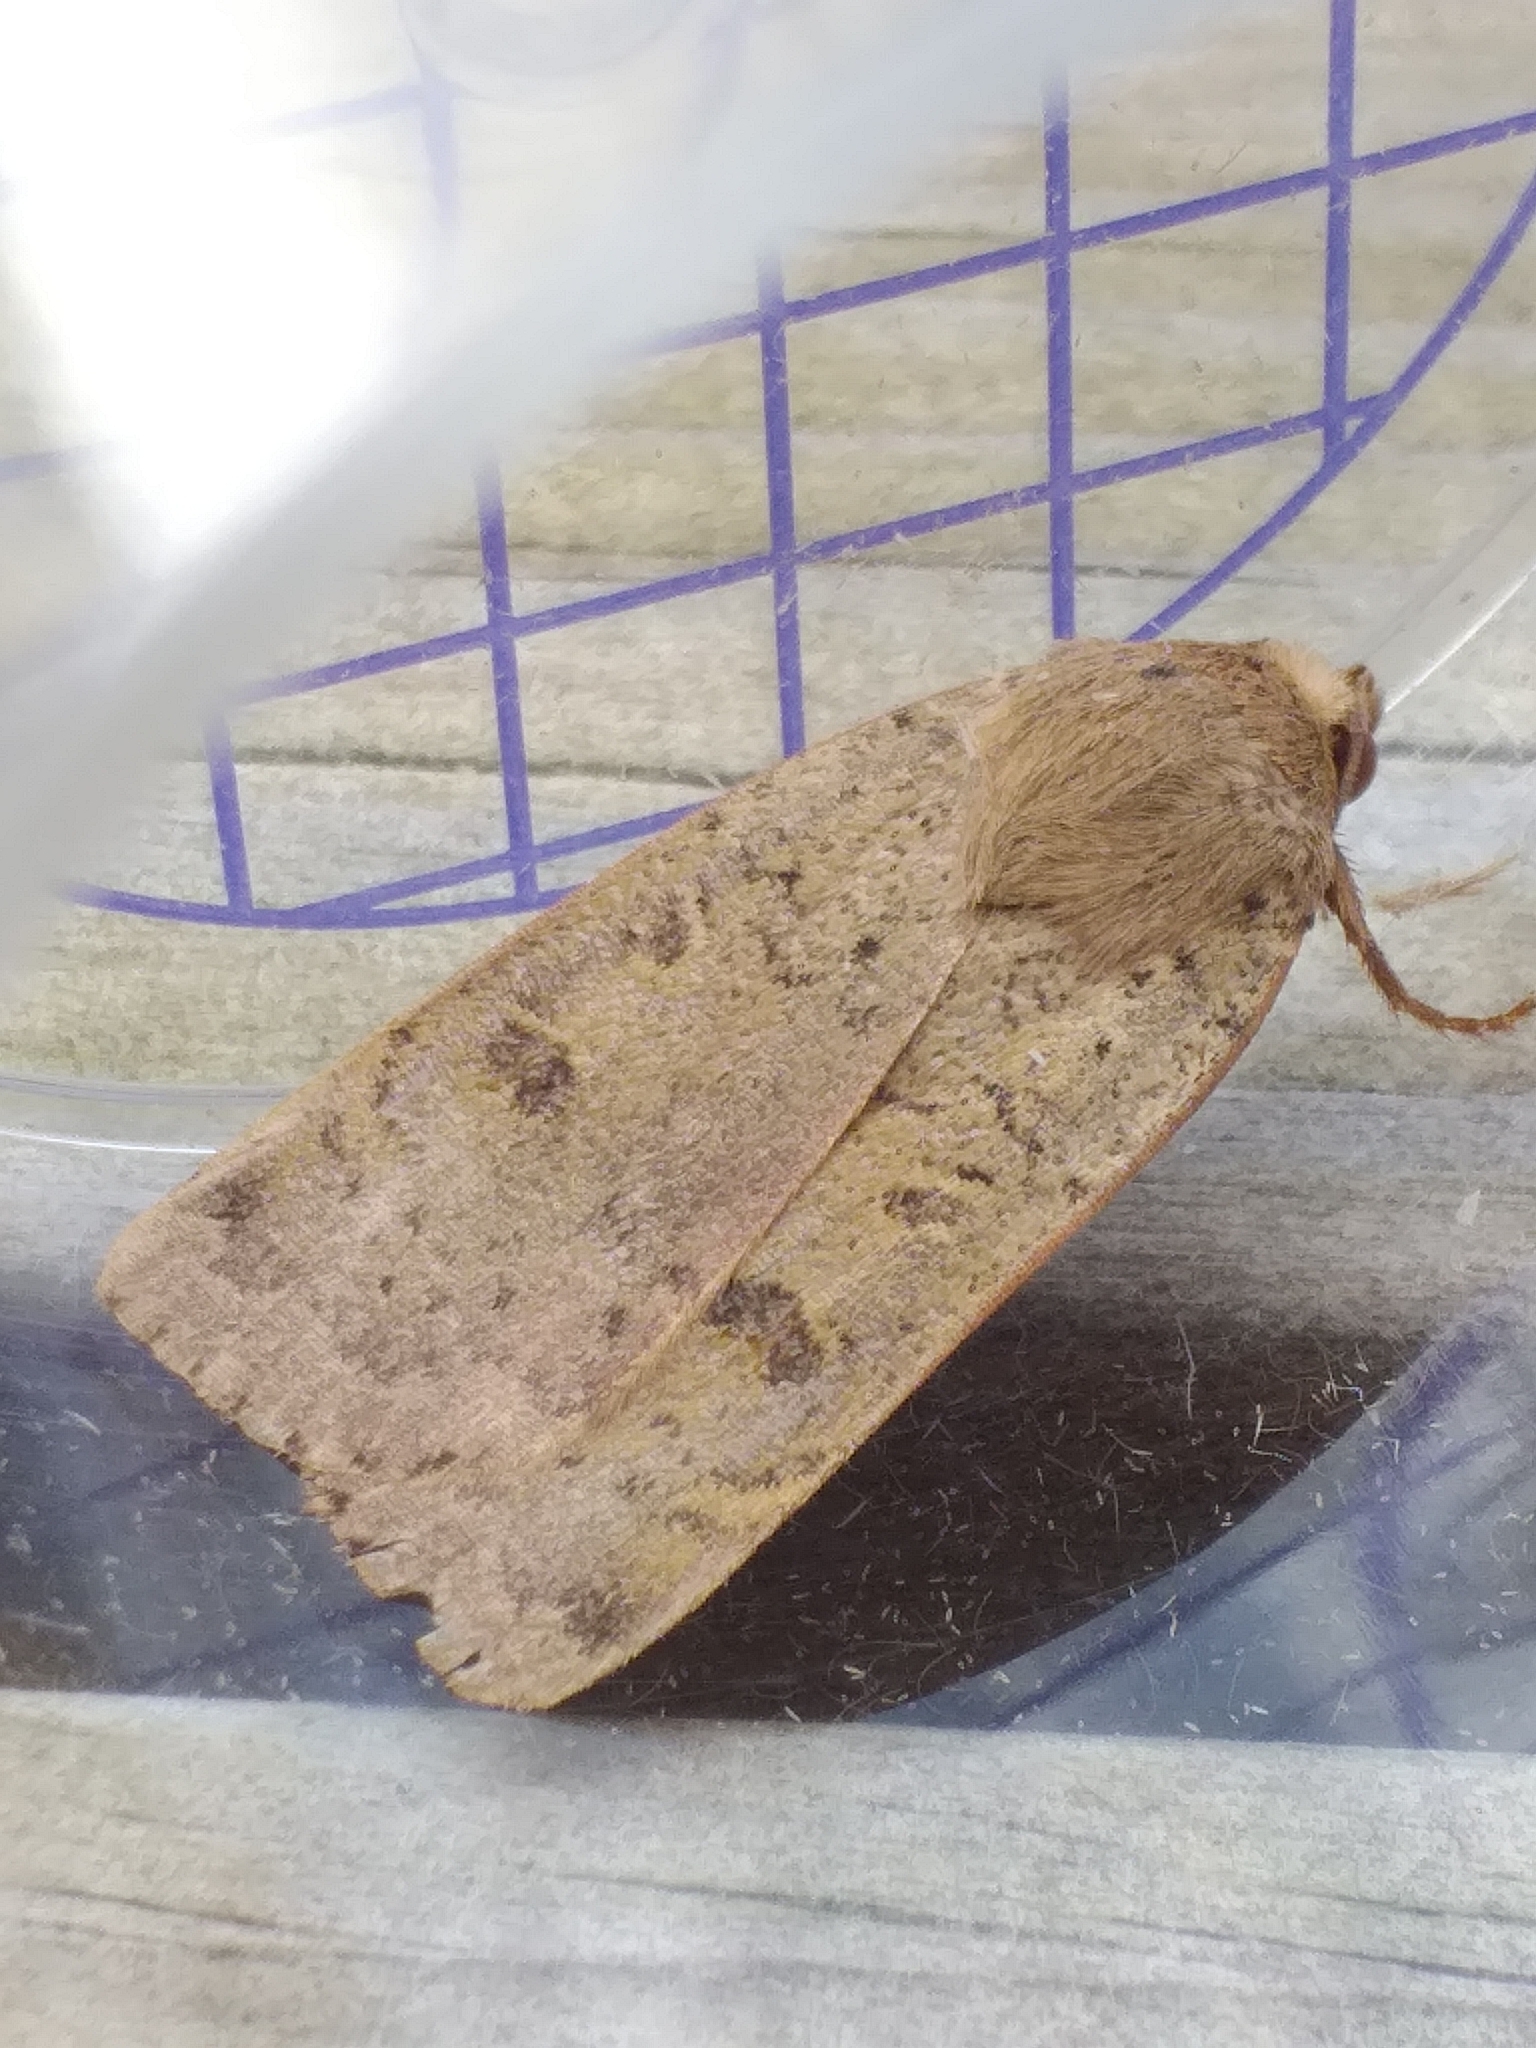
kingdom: Animalia
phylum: Arthropoda
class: Insecta
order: Lepidoptera
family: Noctuidae
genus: Noctua
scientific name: Noctua comes
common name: Lesser yellow underwing
